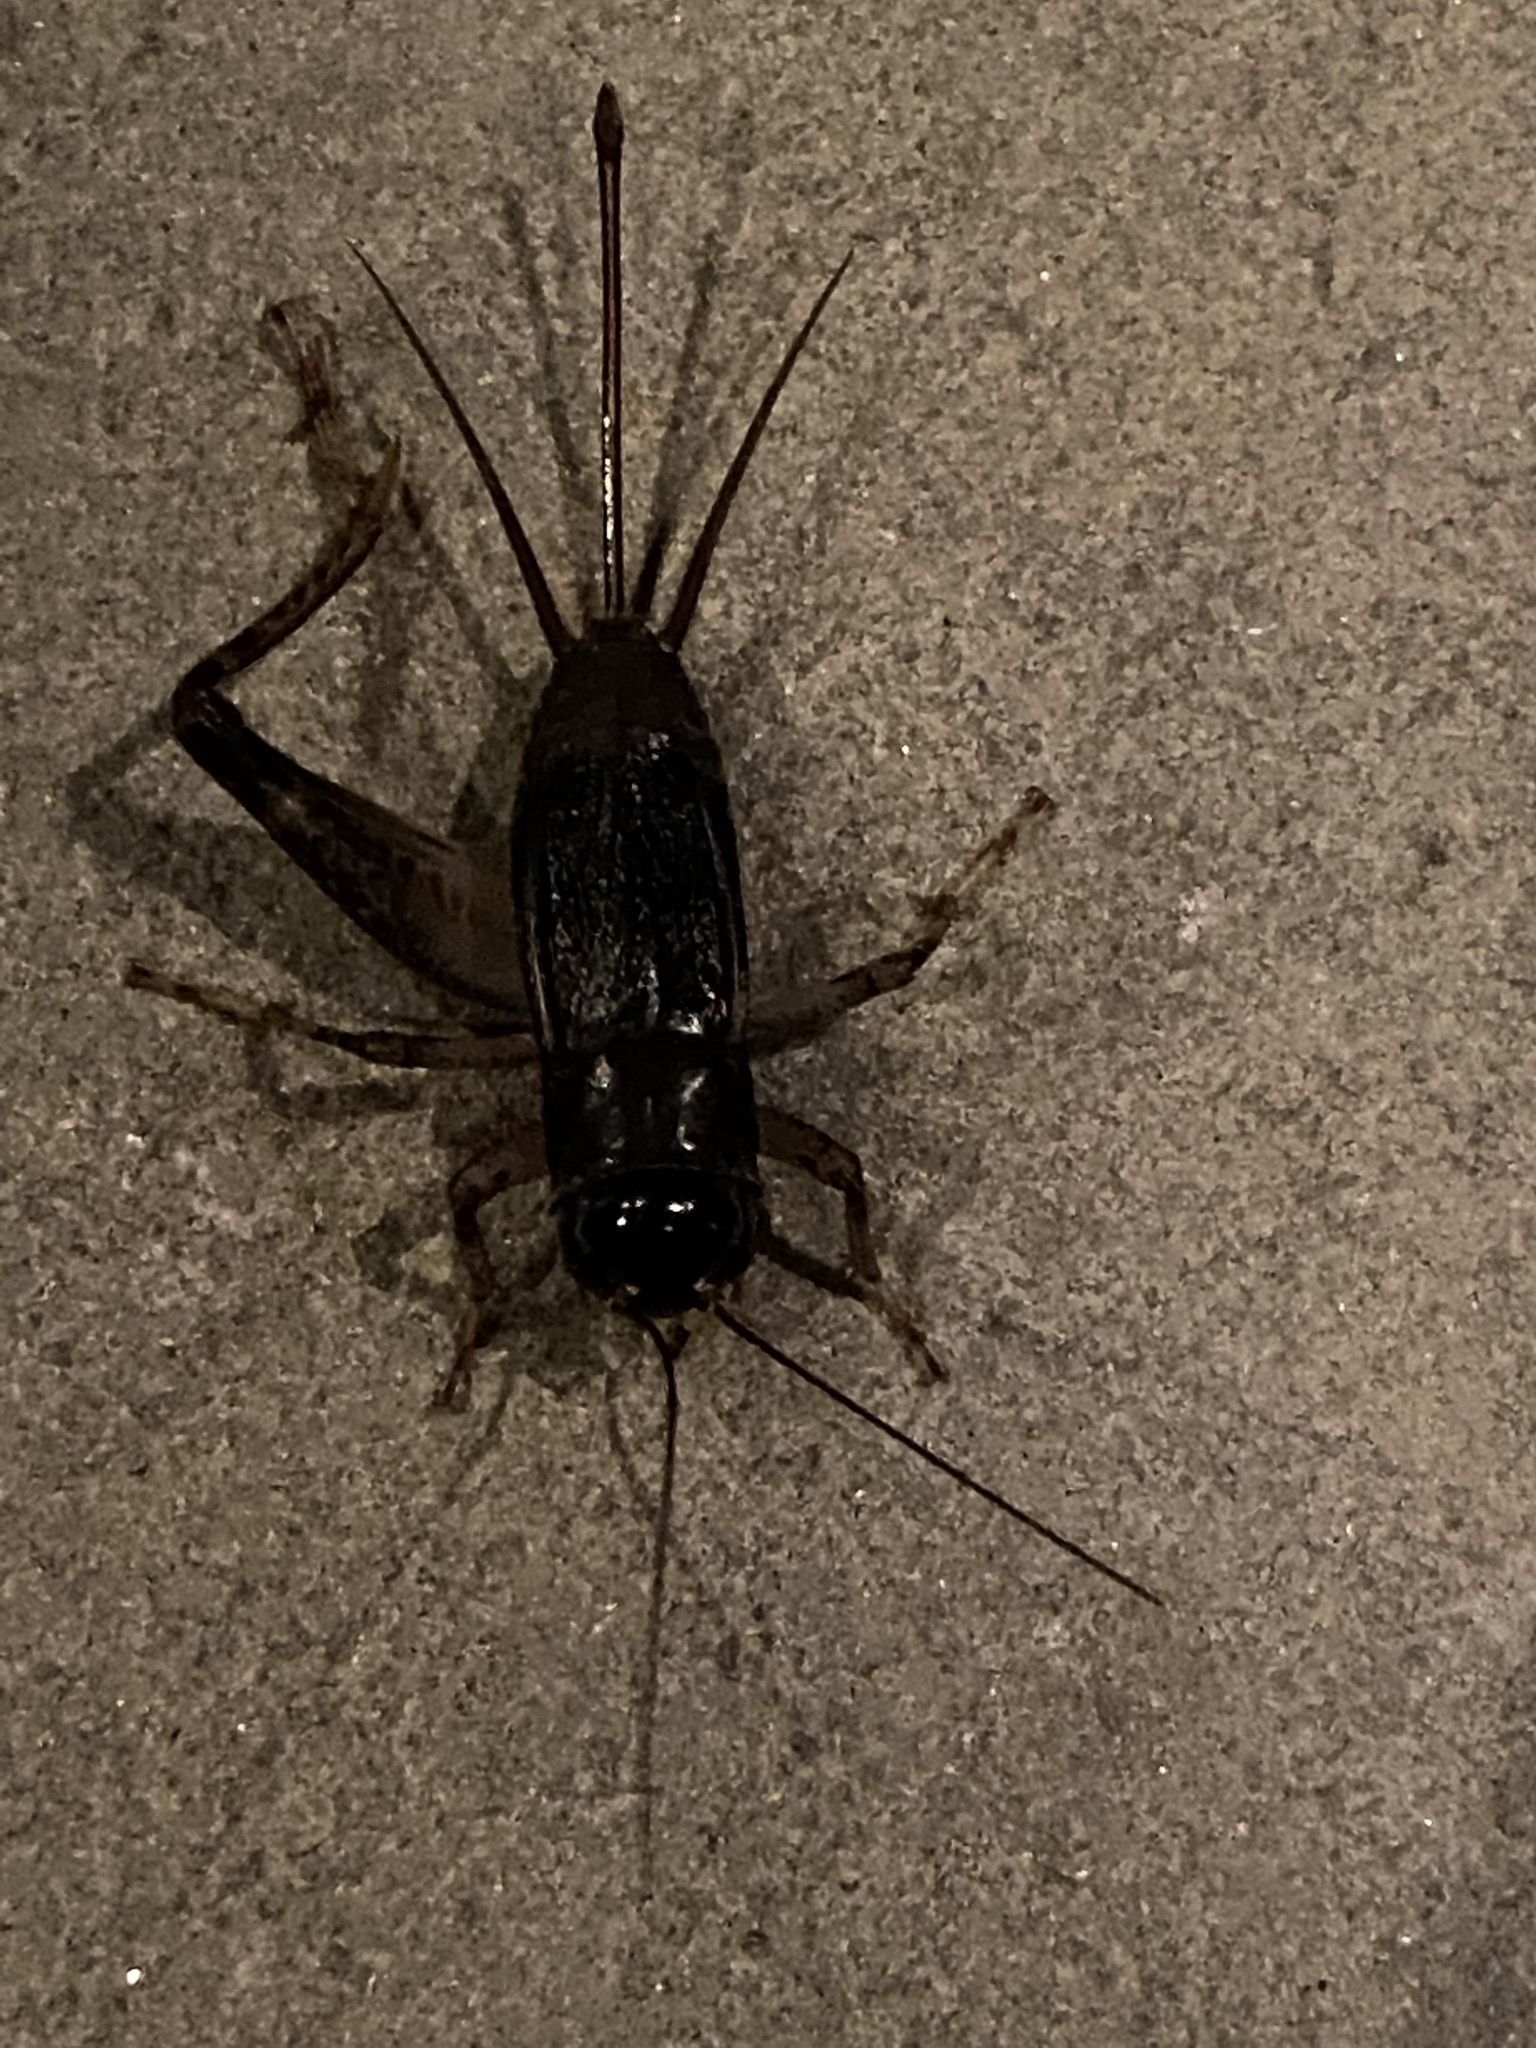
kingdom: Animalia
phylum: Arthropoda
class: Insecta
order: Orthoptera
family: Gryllidae
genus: Velarifictorus
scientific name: Velarifictorus micado
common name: Japanese burrowing cricket
